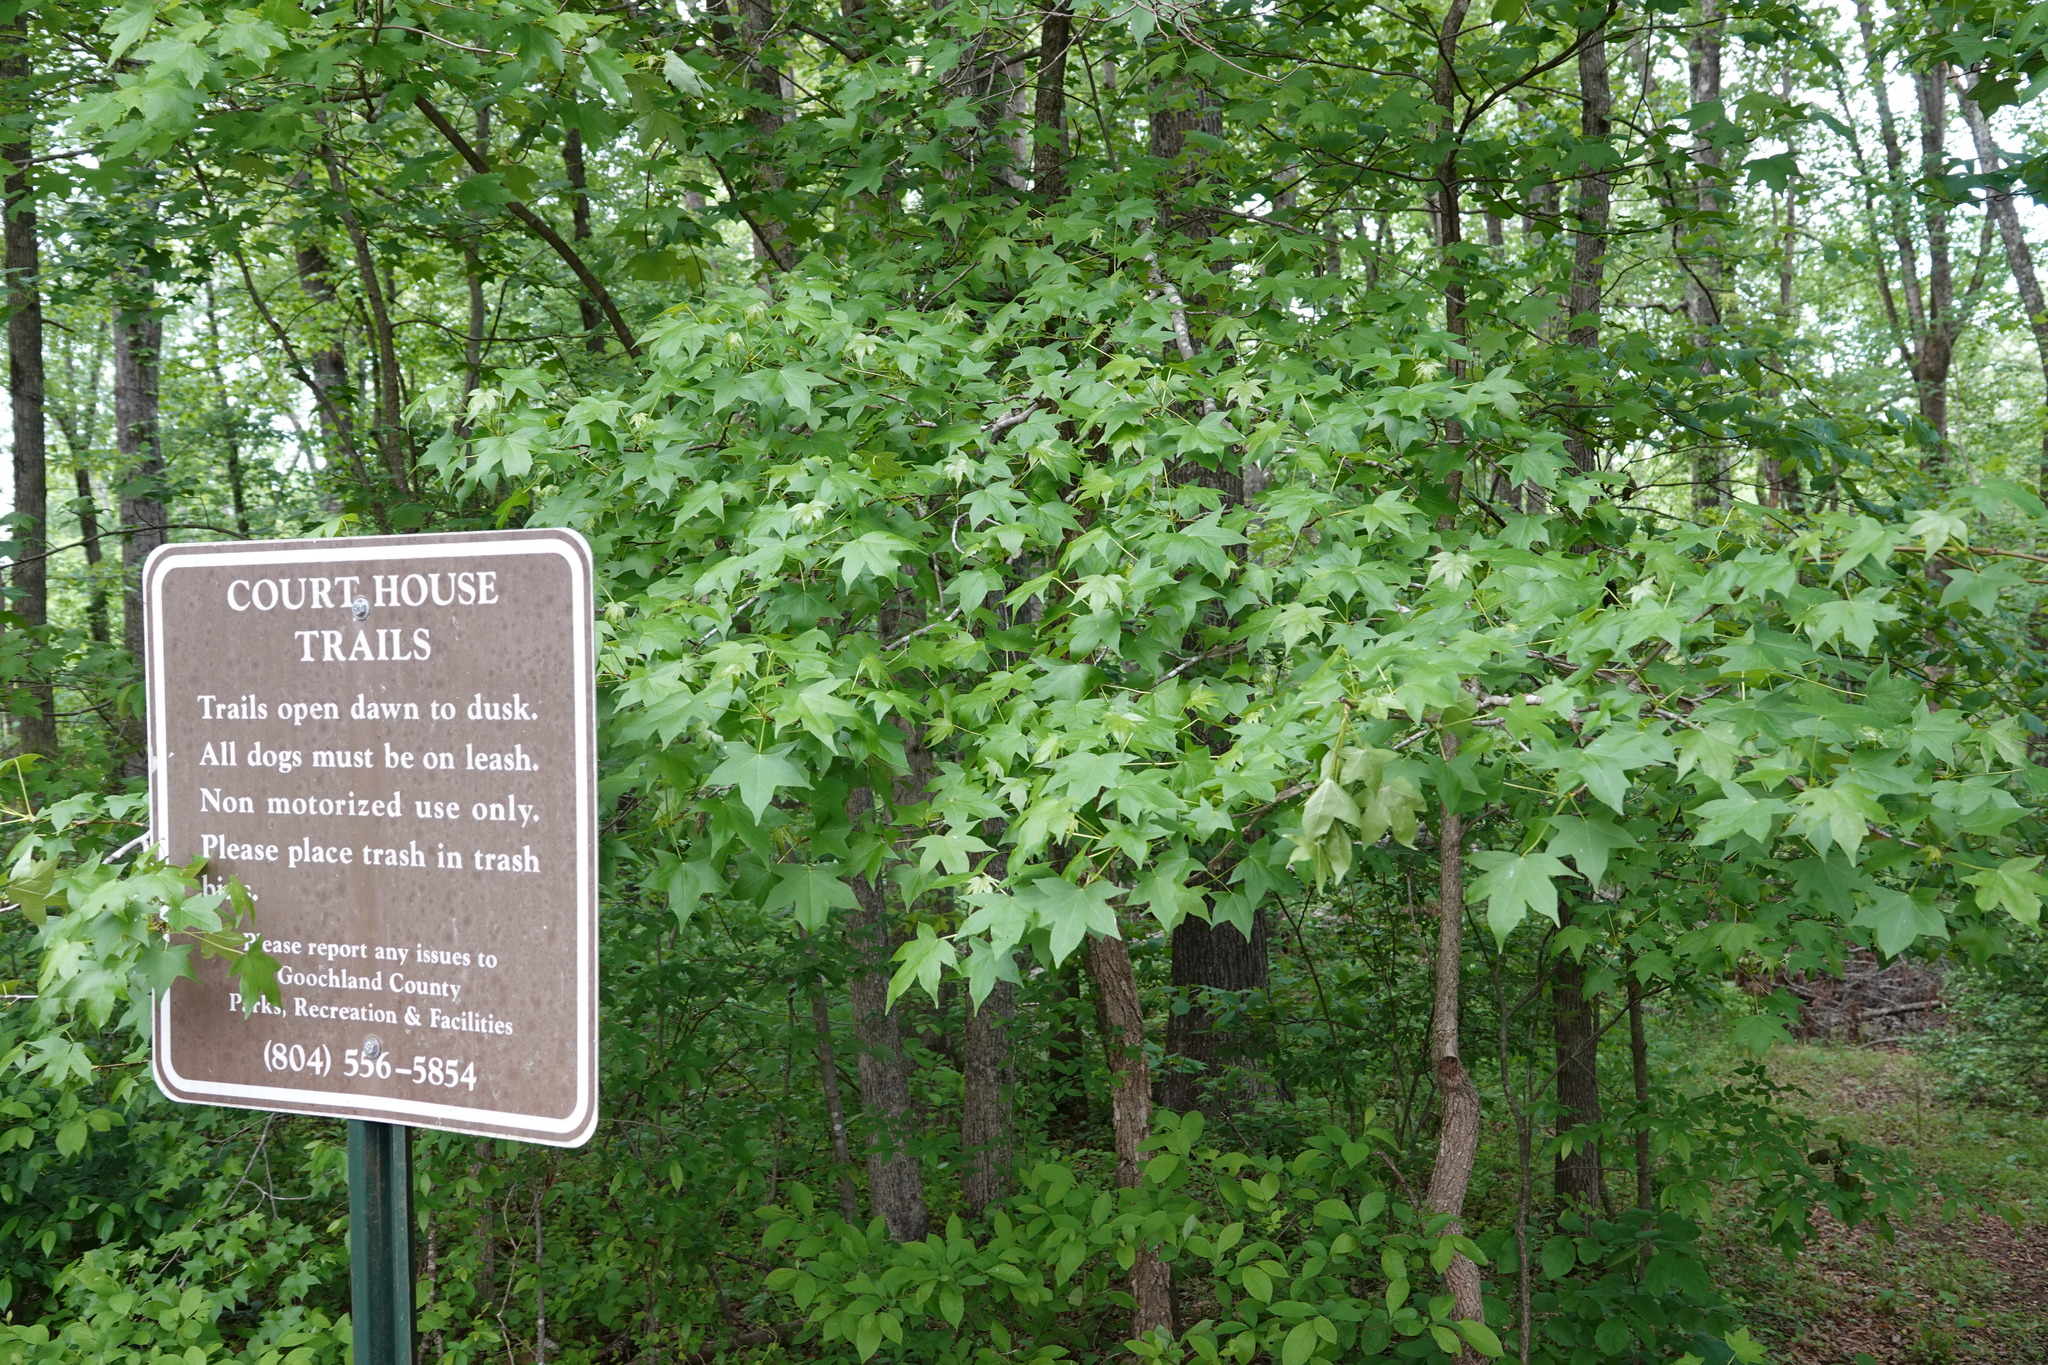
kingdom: Plantae
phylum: Tracheophyta
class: Magnoliopsida
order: Saxifragales
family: Altingiaceae
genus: Liquidambar
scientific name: Liquidambar styraciflua
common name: Sweet gum
